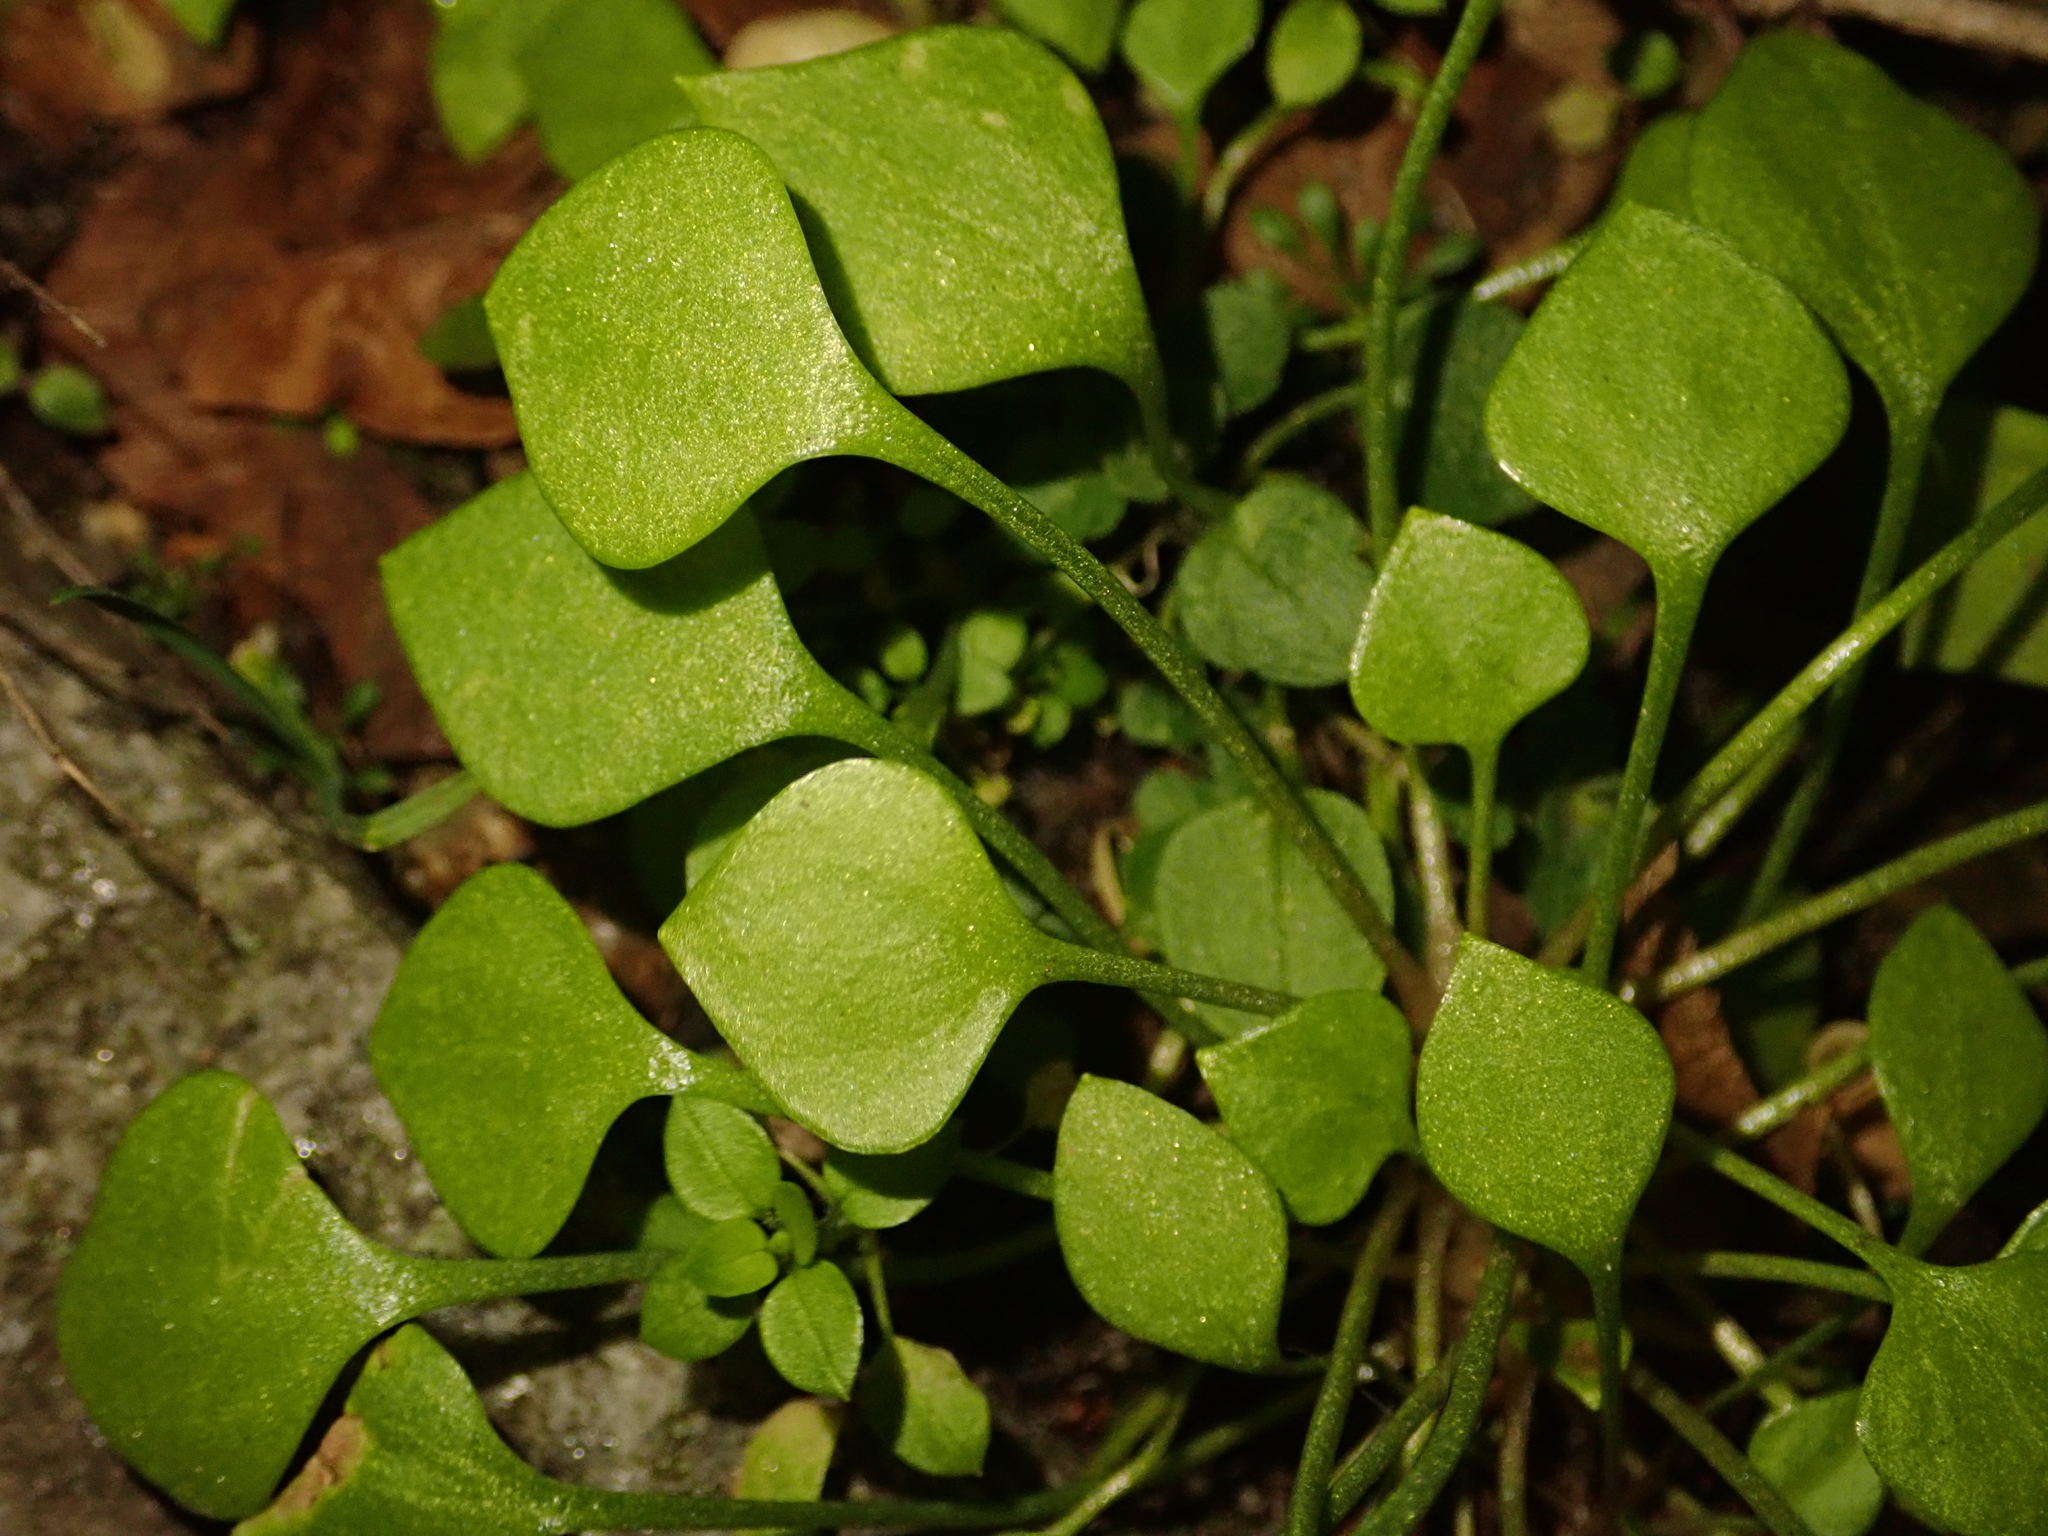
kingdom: Plantae
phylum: Tracheophyta
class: Magnoliopsida
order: Caryophyllales
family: Montiaceae
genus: Claytonia
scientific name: Claytonia perfoliata
